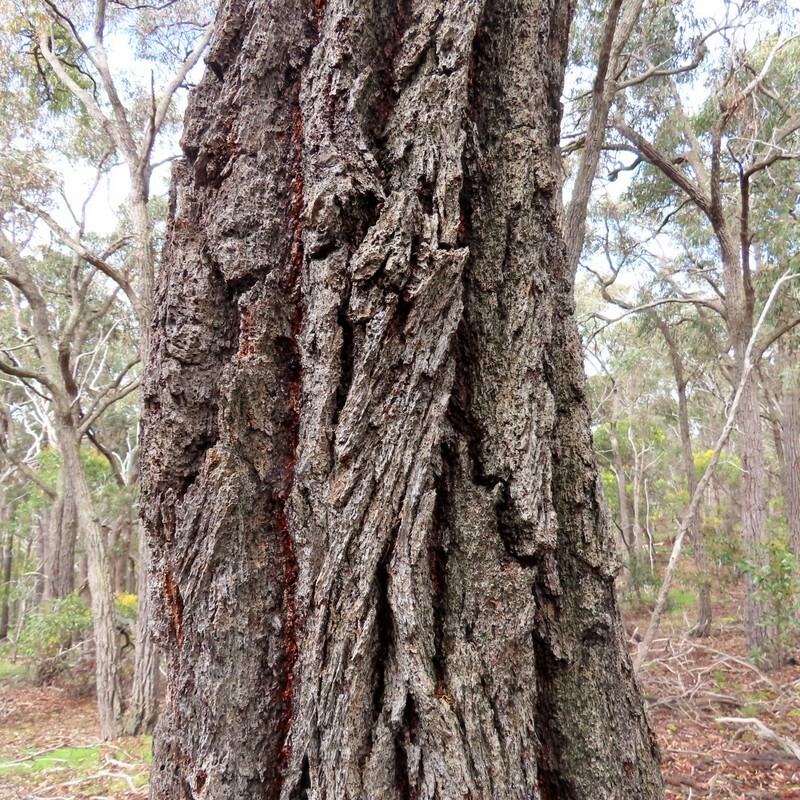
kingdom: Plantae
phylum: Tracheophyta
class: Magnoliopsida
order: Myrtales
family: Myrtaceae
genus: Eucalyptus
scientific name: Eucalyptus tricarpa
